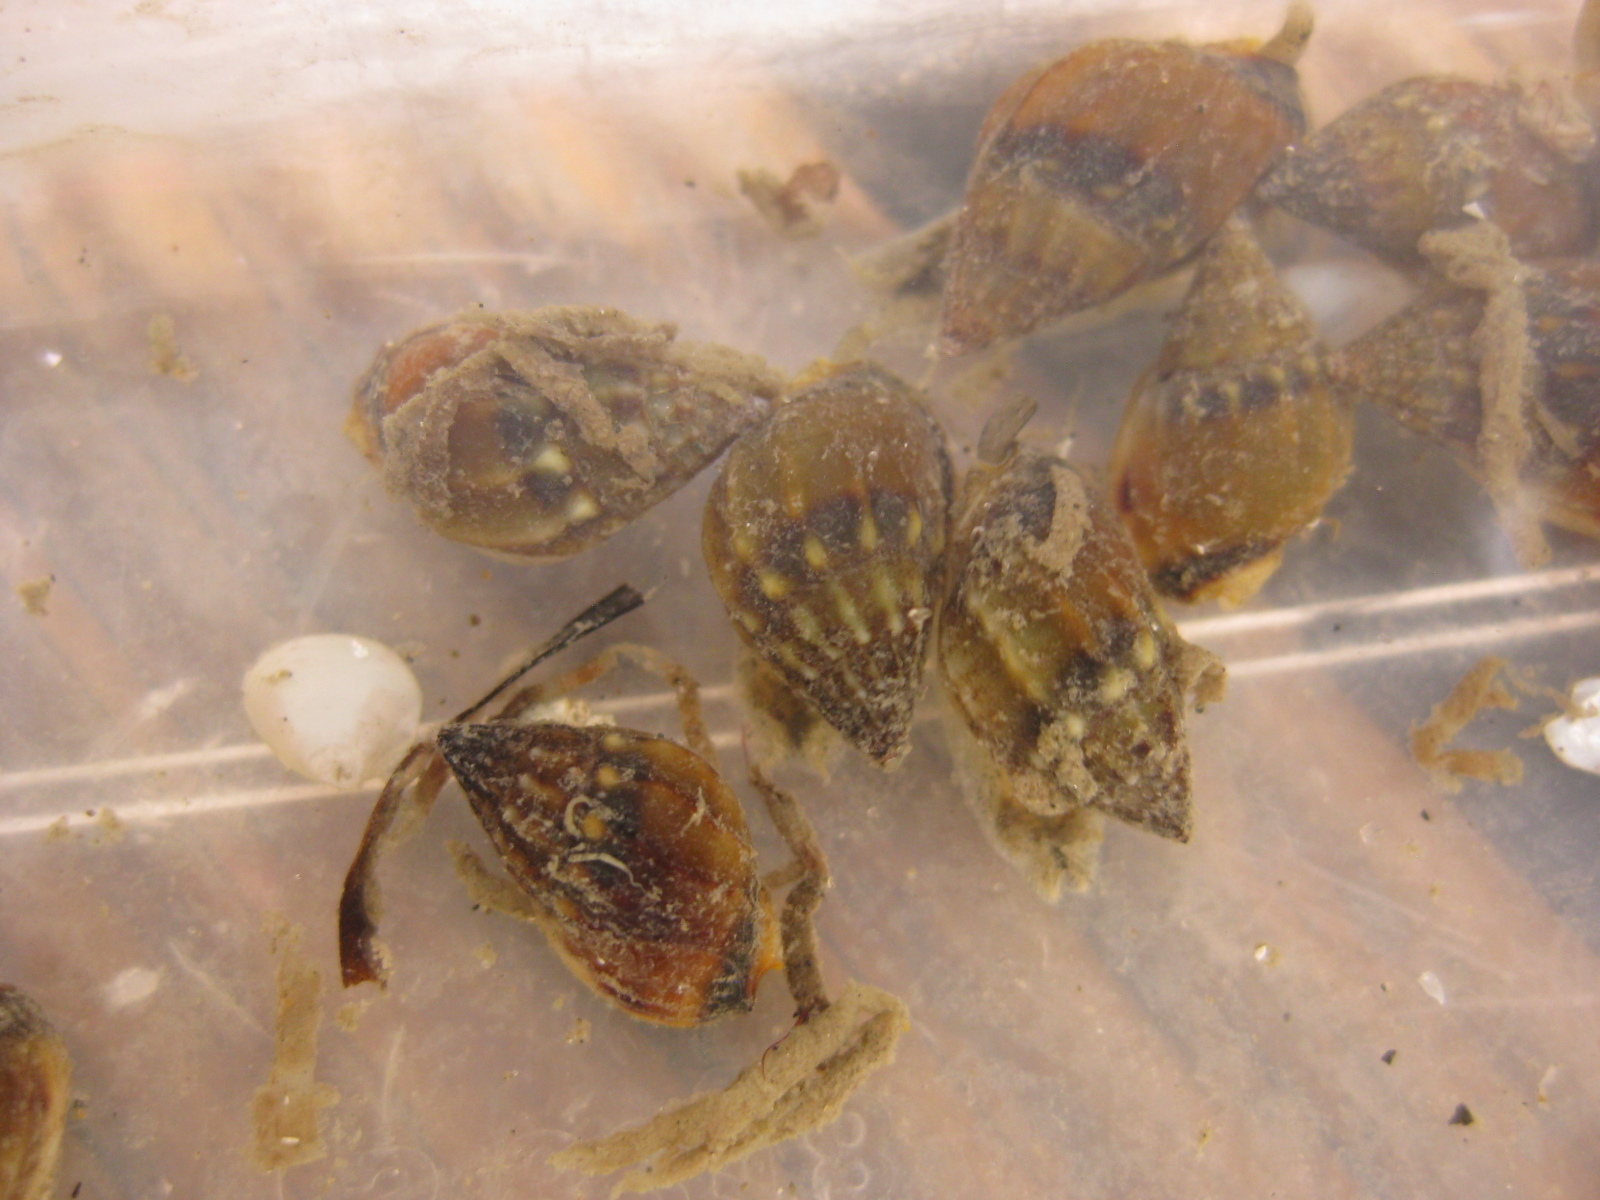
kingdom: Animalia
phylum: Mollusca
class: Gastropoda
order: Neogastropoda
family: Nassariidae
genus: Tritia
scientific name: Tritia burchardi
